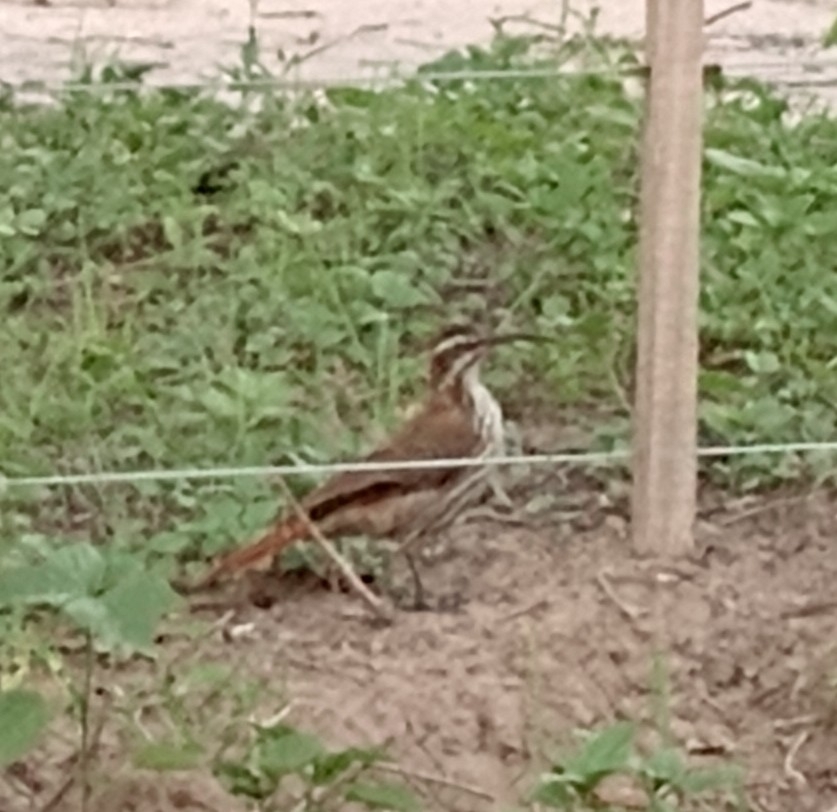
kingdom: Animalia
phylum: Chordata
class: Aves
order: Passeriformes
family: Furnariidae
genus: Drymornis
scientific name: Drymornis bridgesii
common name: Scimitar-billed woodcreeper
